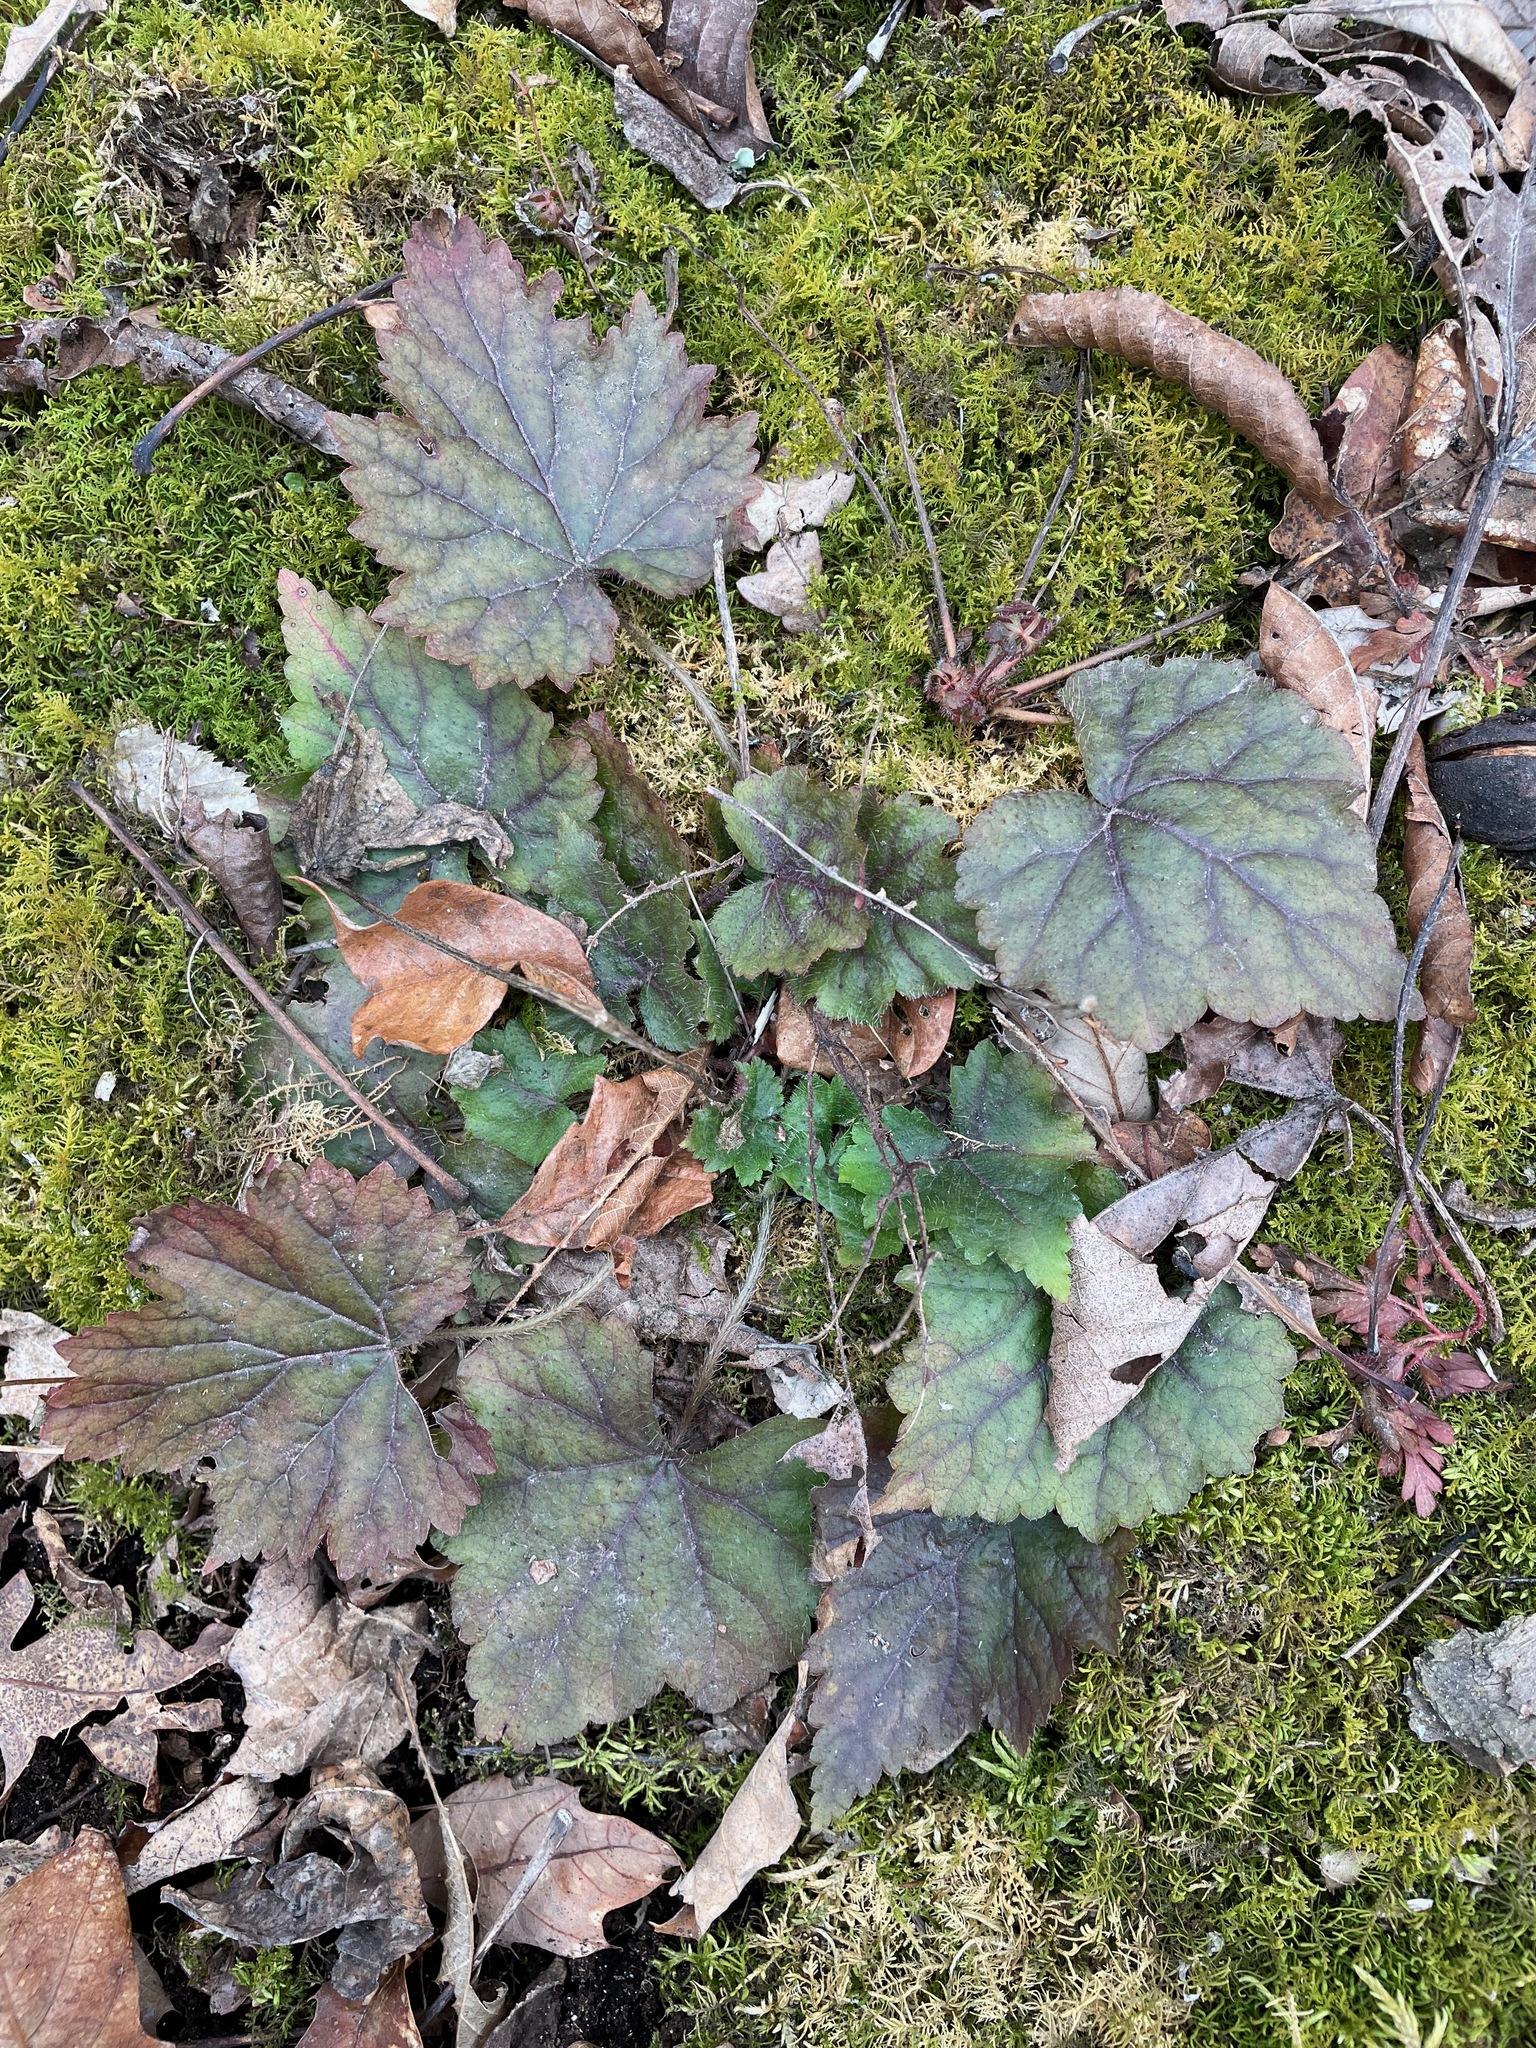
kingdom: Plantae
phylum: Tracheophyta
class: Magnoliopsida
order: Saxifragales
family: Saxifragaceae
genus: Mitella
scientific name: Mitella diphylla
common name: Coolwort
